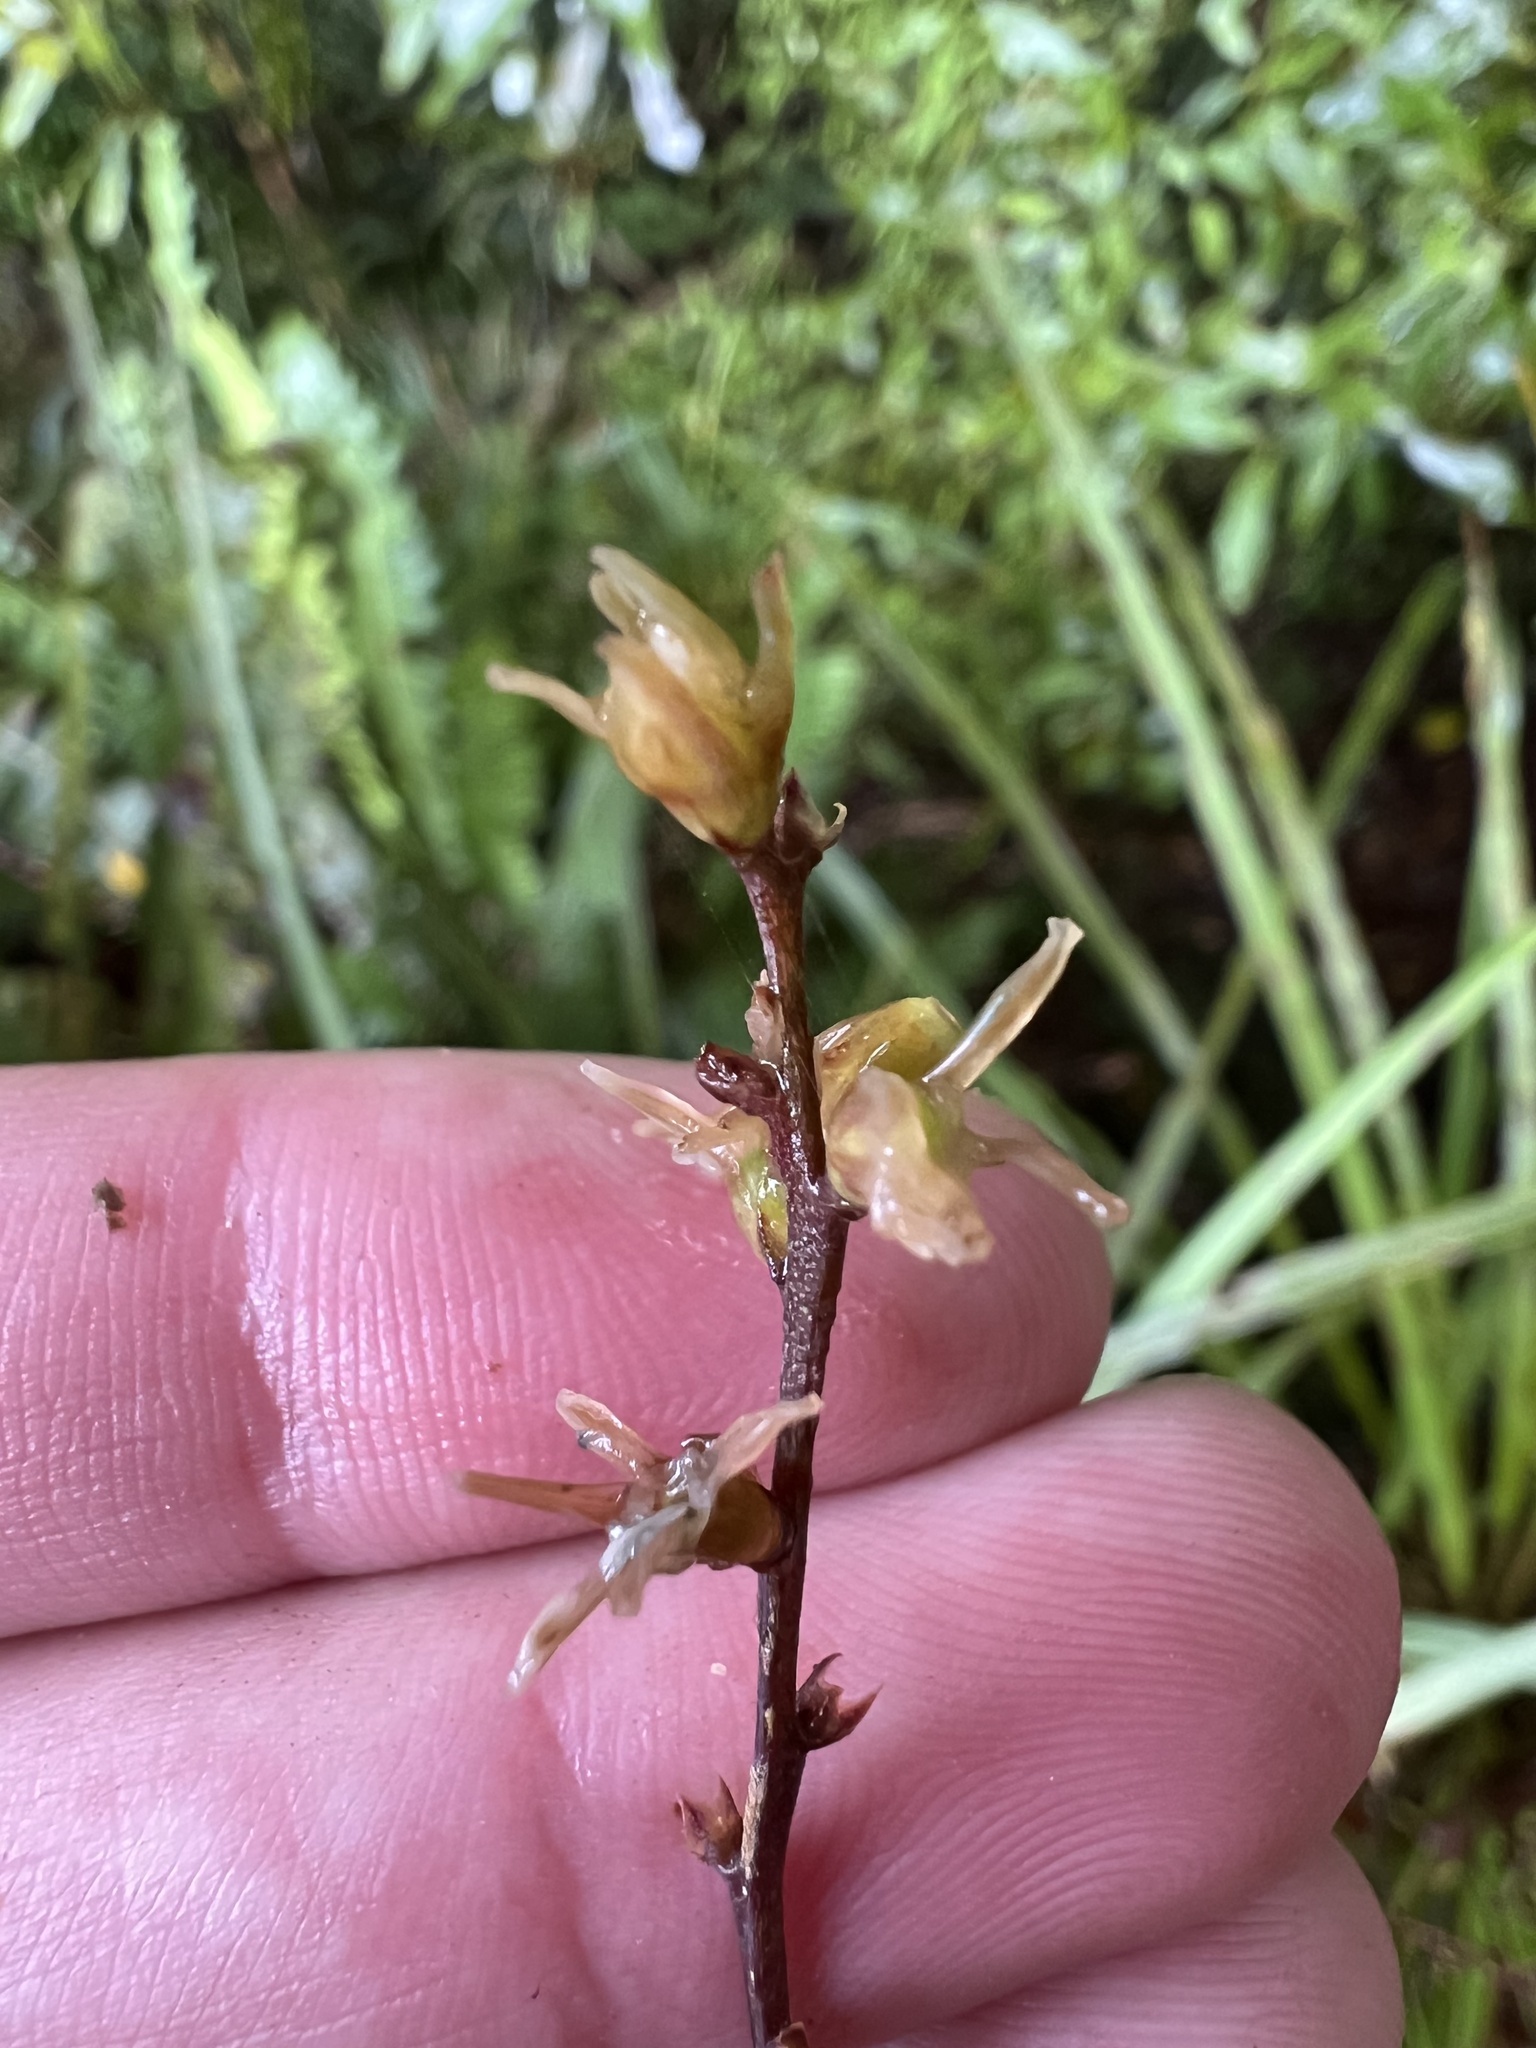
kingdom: Plantae
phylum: Tracheophyta
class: Liliopsida
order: Asparagales
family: Asparagaceae
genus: Cordyline
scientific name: Cordyline pumilio
